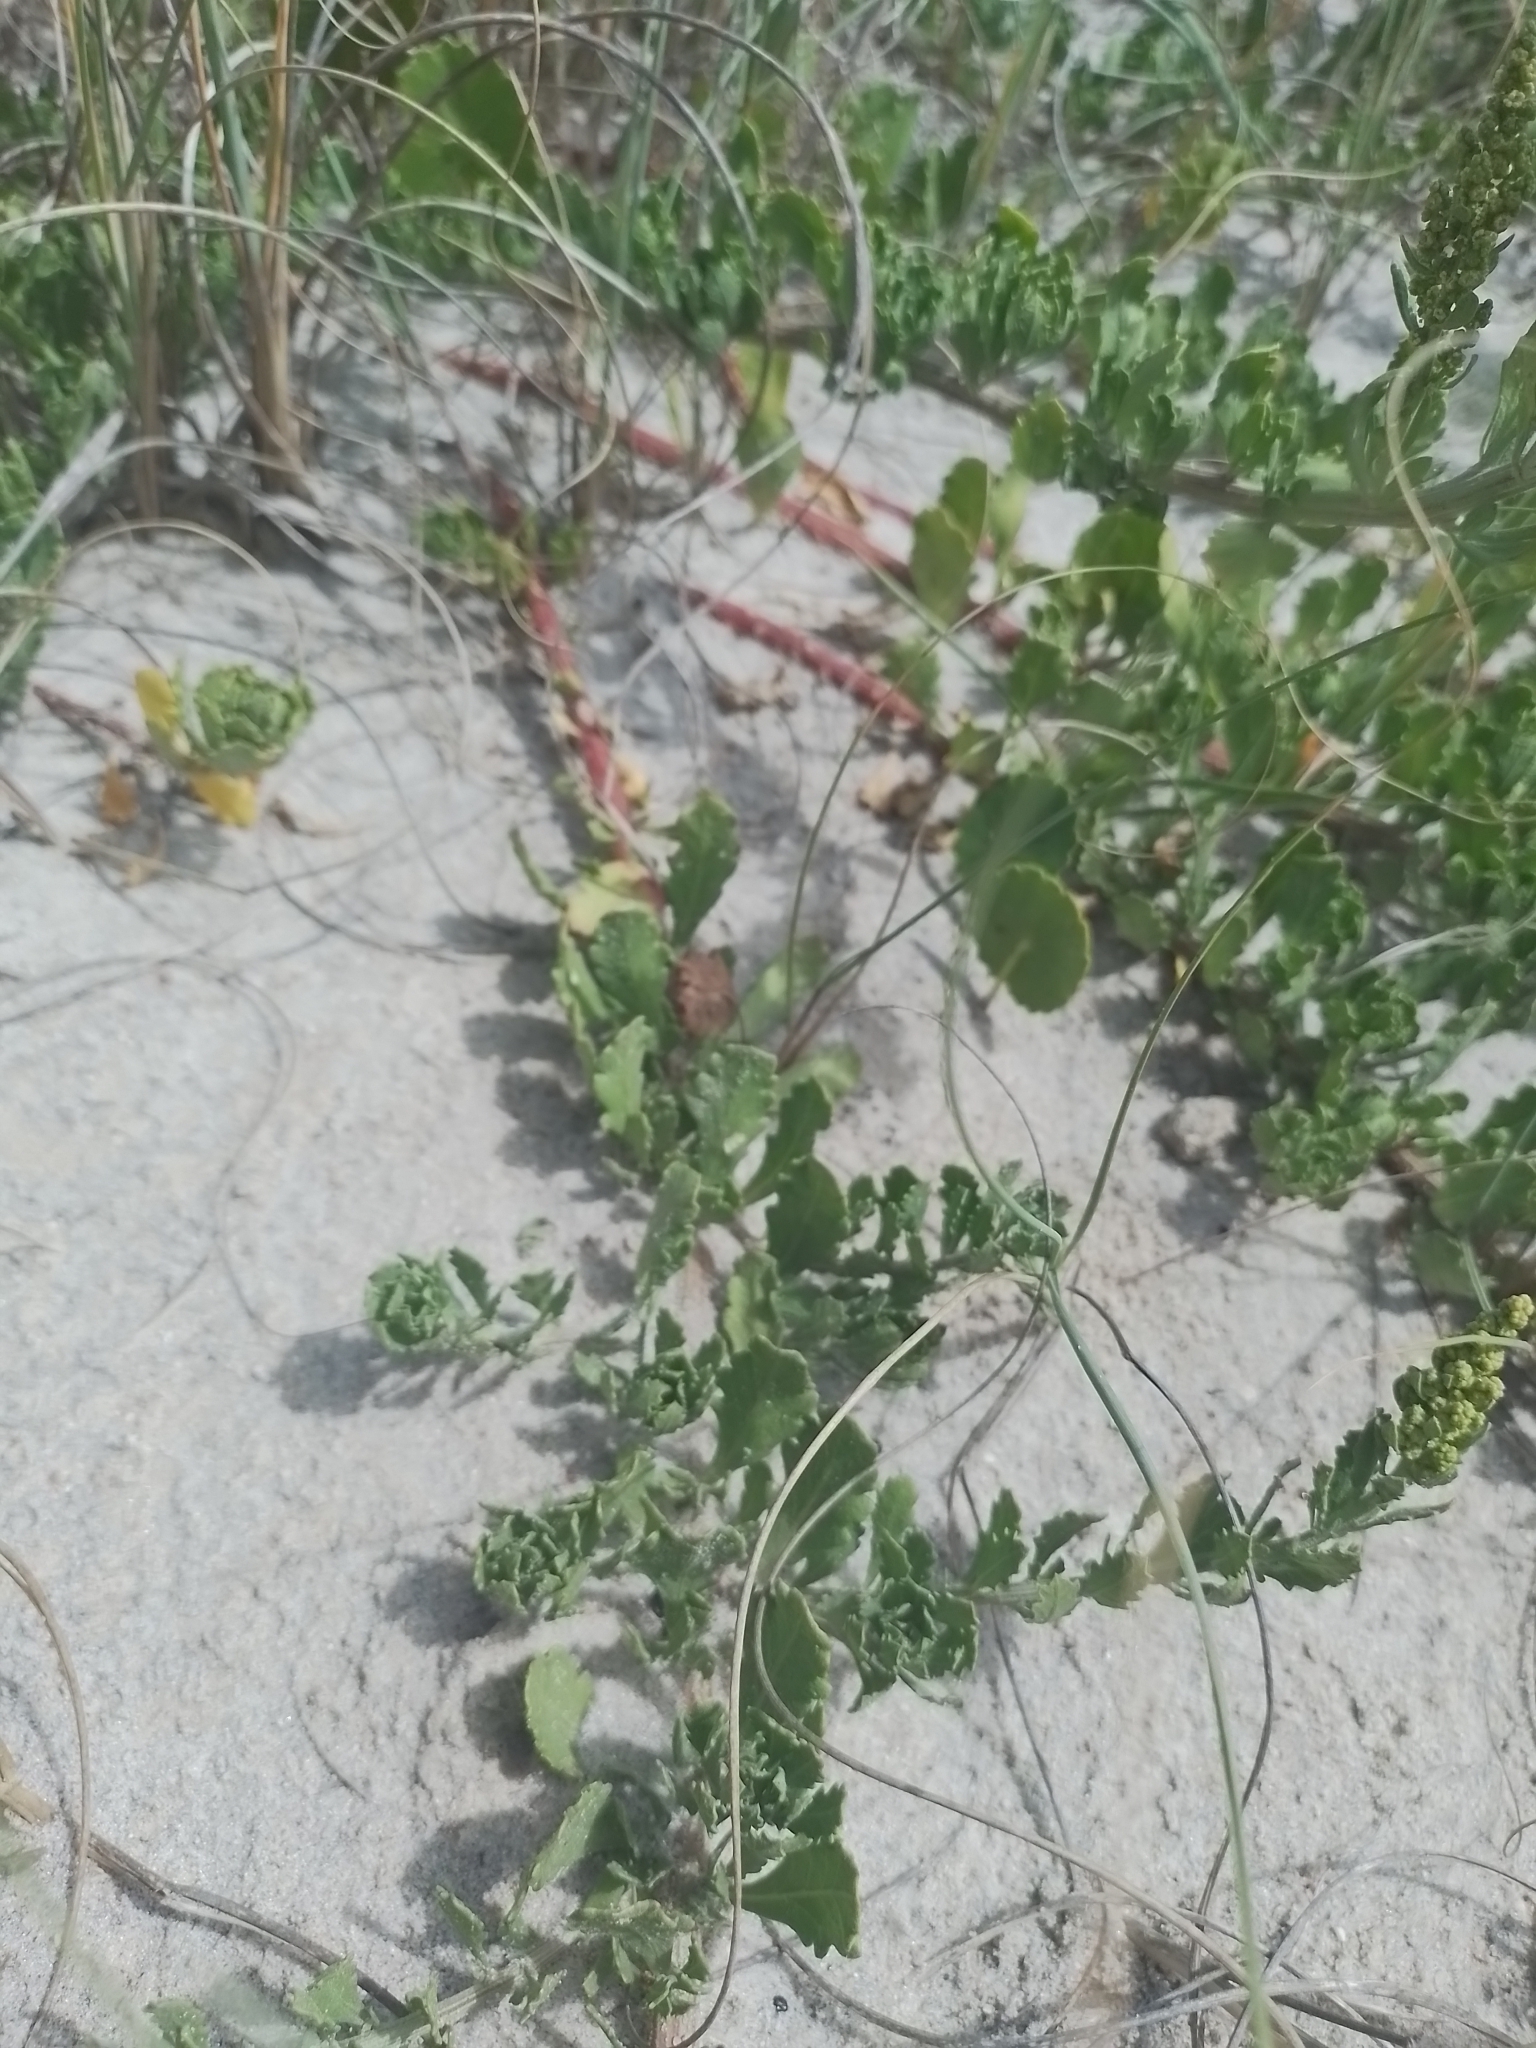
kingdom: Plantae
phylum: Tracheophyta
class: Magnoliopsida
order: Caryophyllales
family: Amaranthaceae
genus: Dysphania
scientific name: Dysphania retusa
